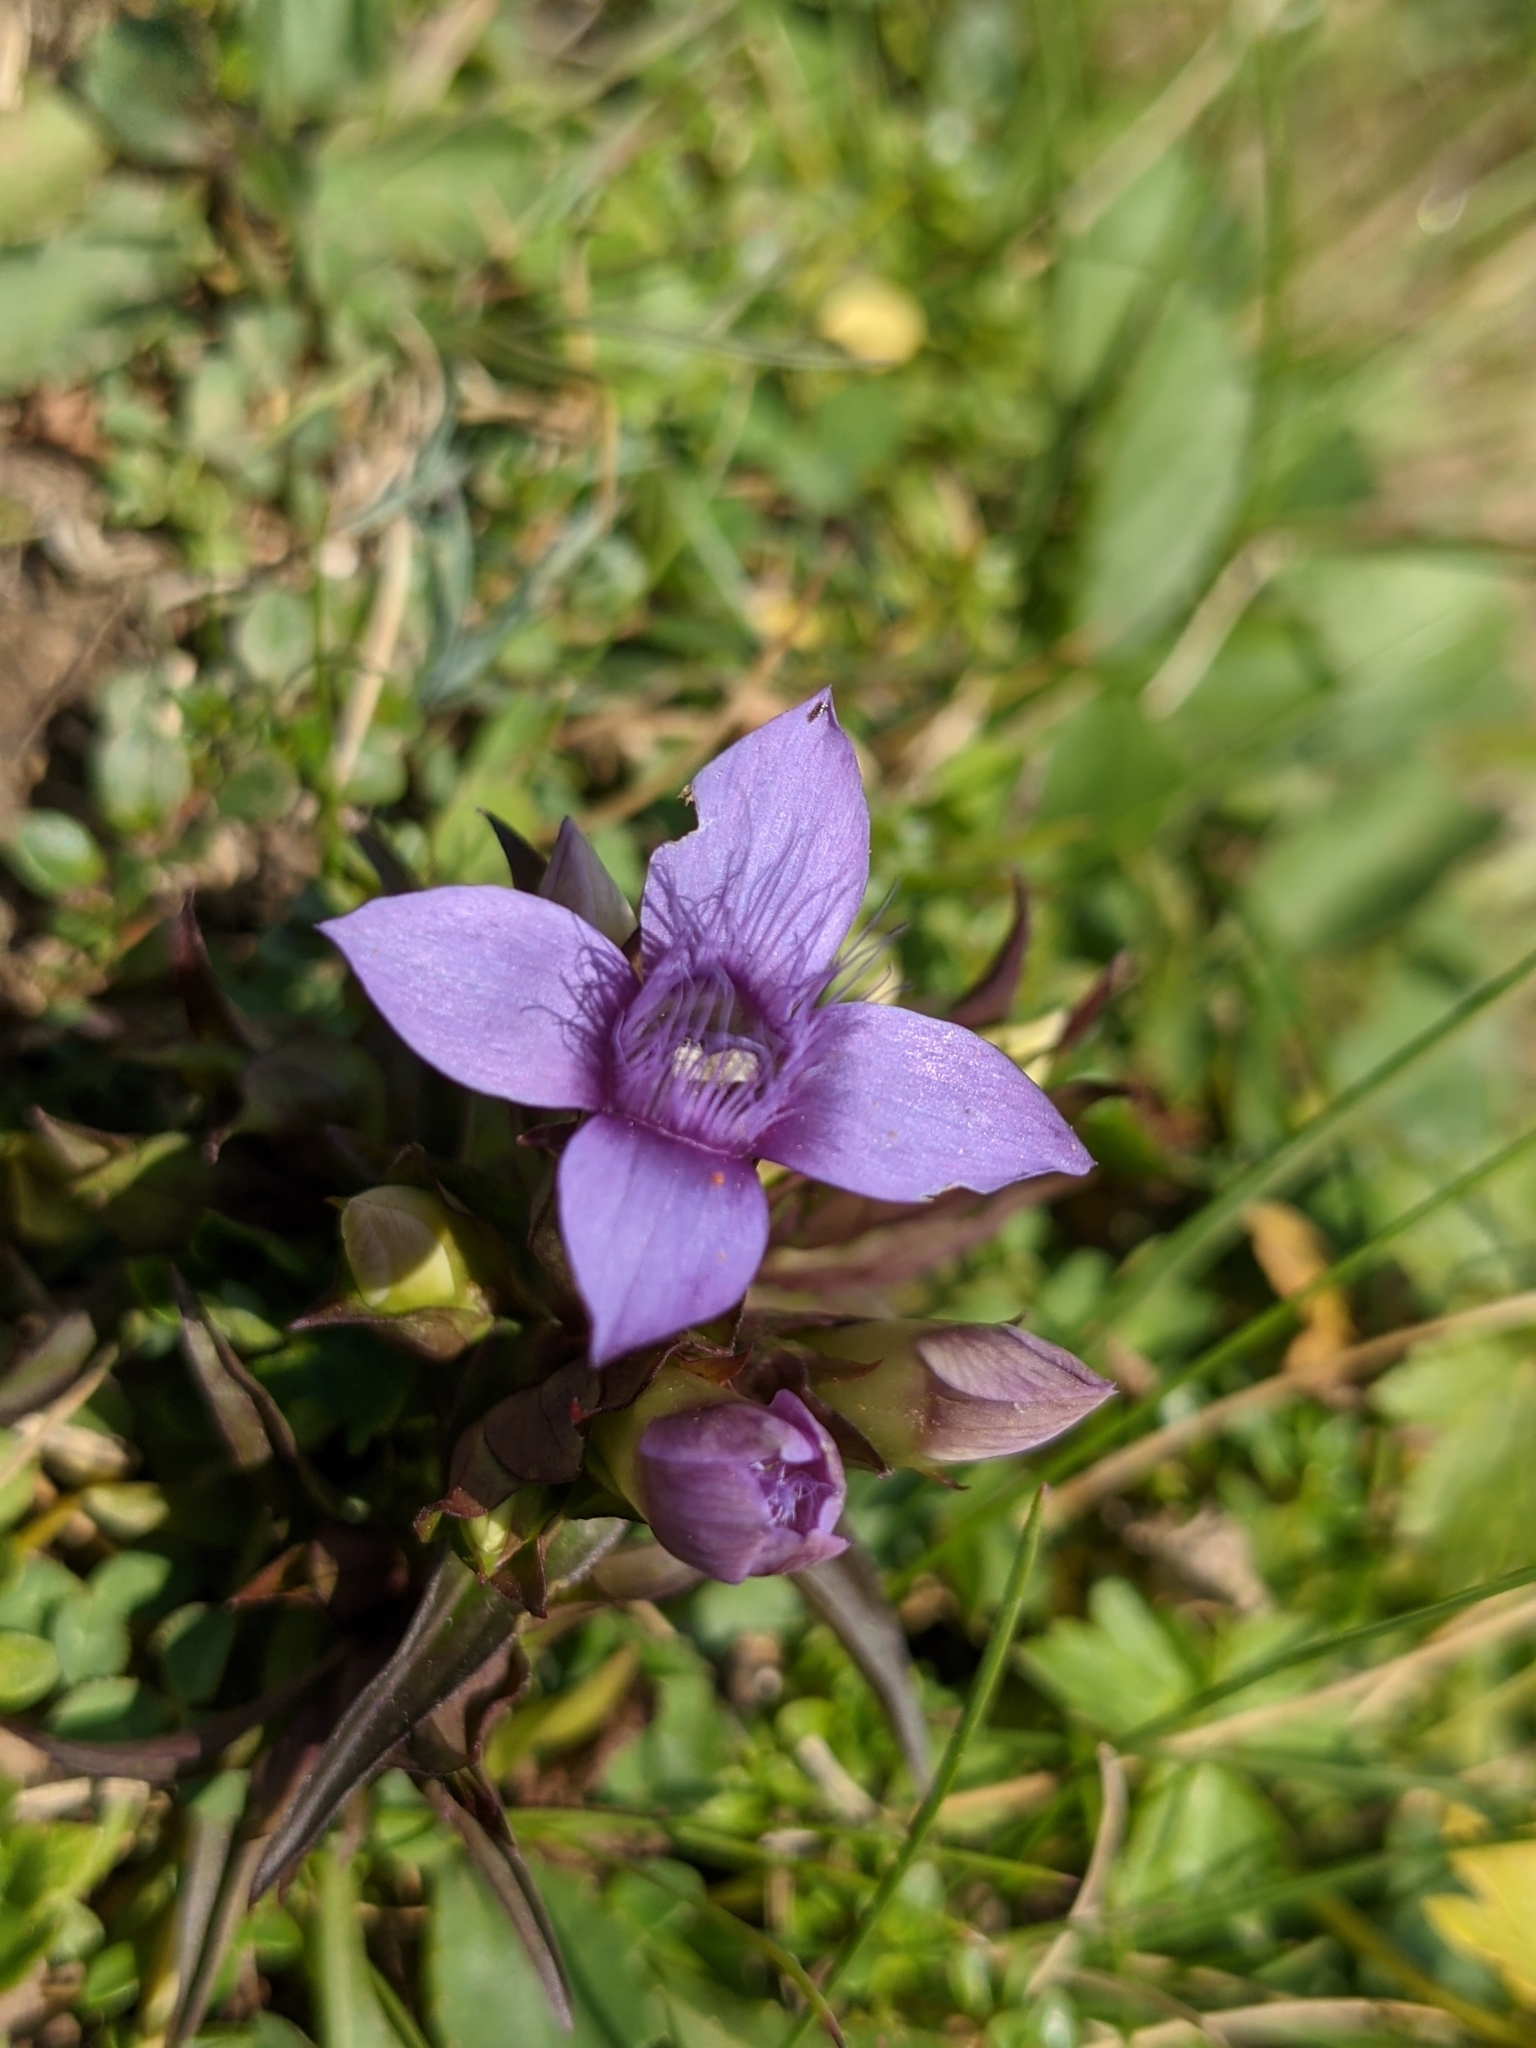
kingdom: Plantae
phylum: Tracheophyta
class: Magnoliopsida
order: Gentianales
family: Gentianaceae
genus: Gentianella
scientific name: Gentianella campestris
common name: Field gentian
